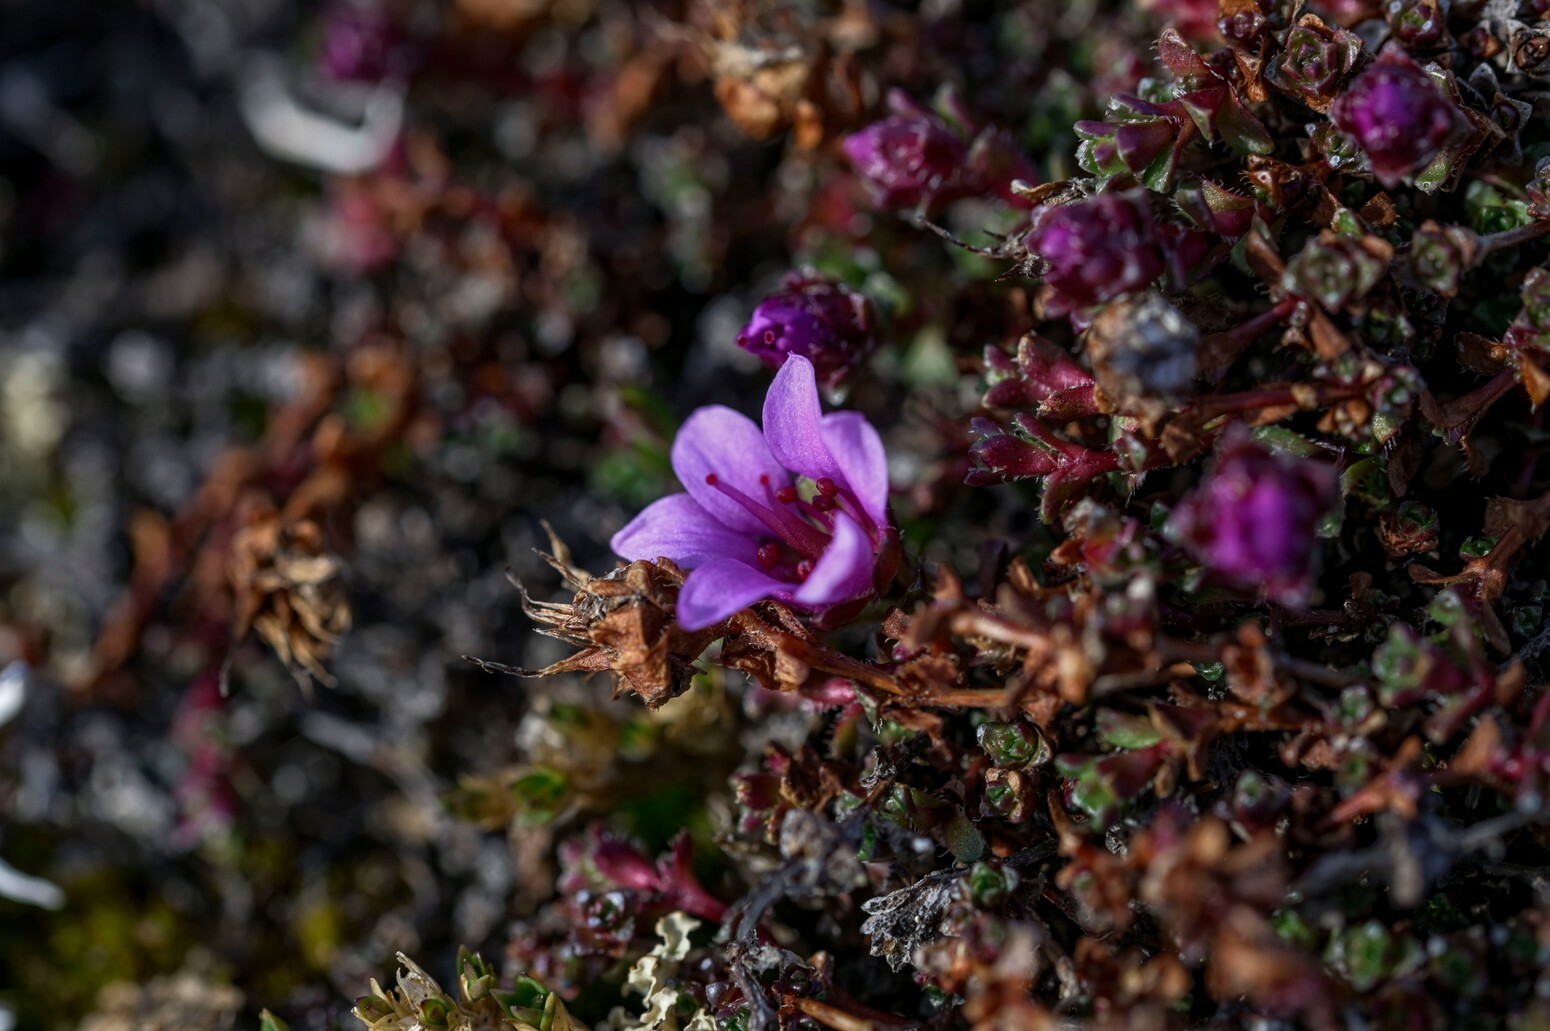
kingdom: Plantae
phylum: Tracheophyta
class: Magnoliopsida
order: Saxifragales
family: Saxifragaceae
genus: Saxifraga
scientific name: Saxifraga oppositifolia
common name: Purple saxifrage
